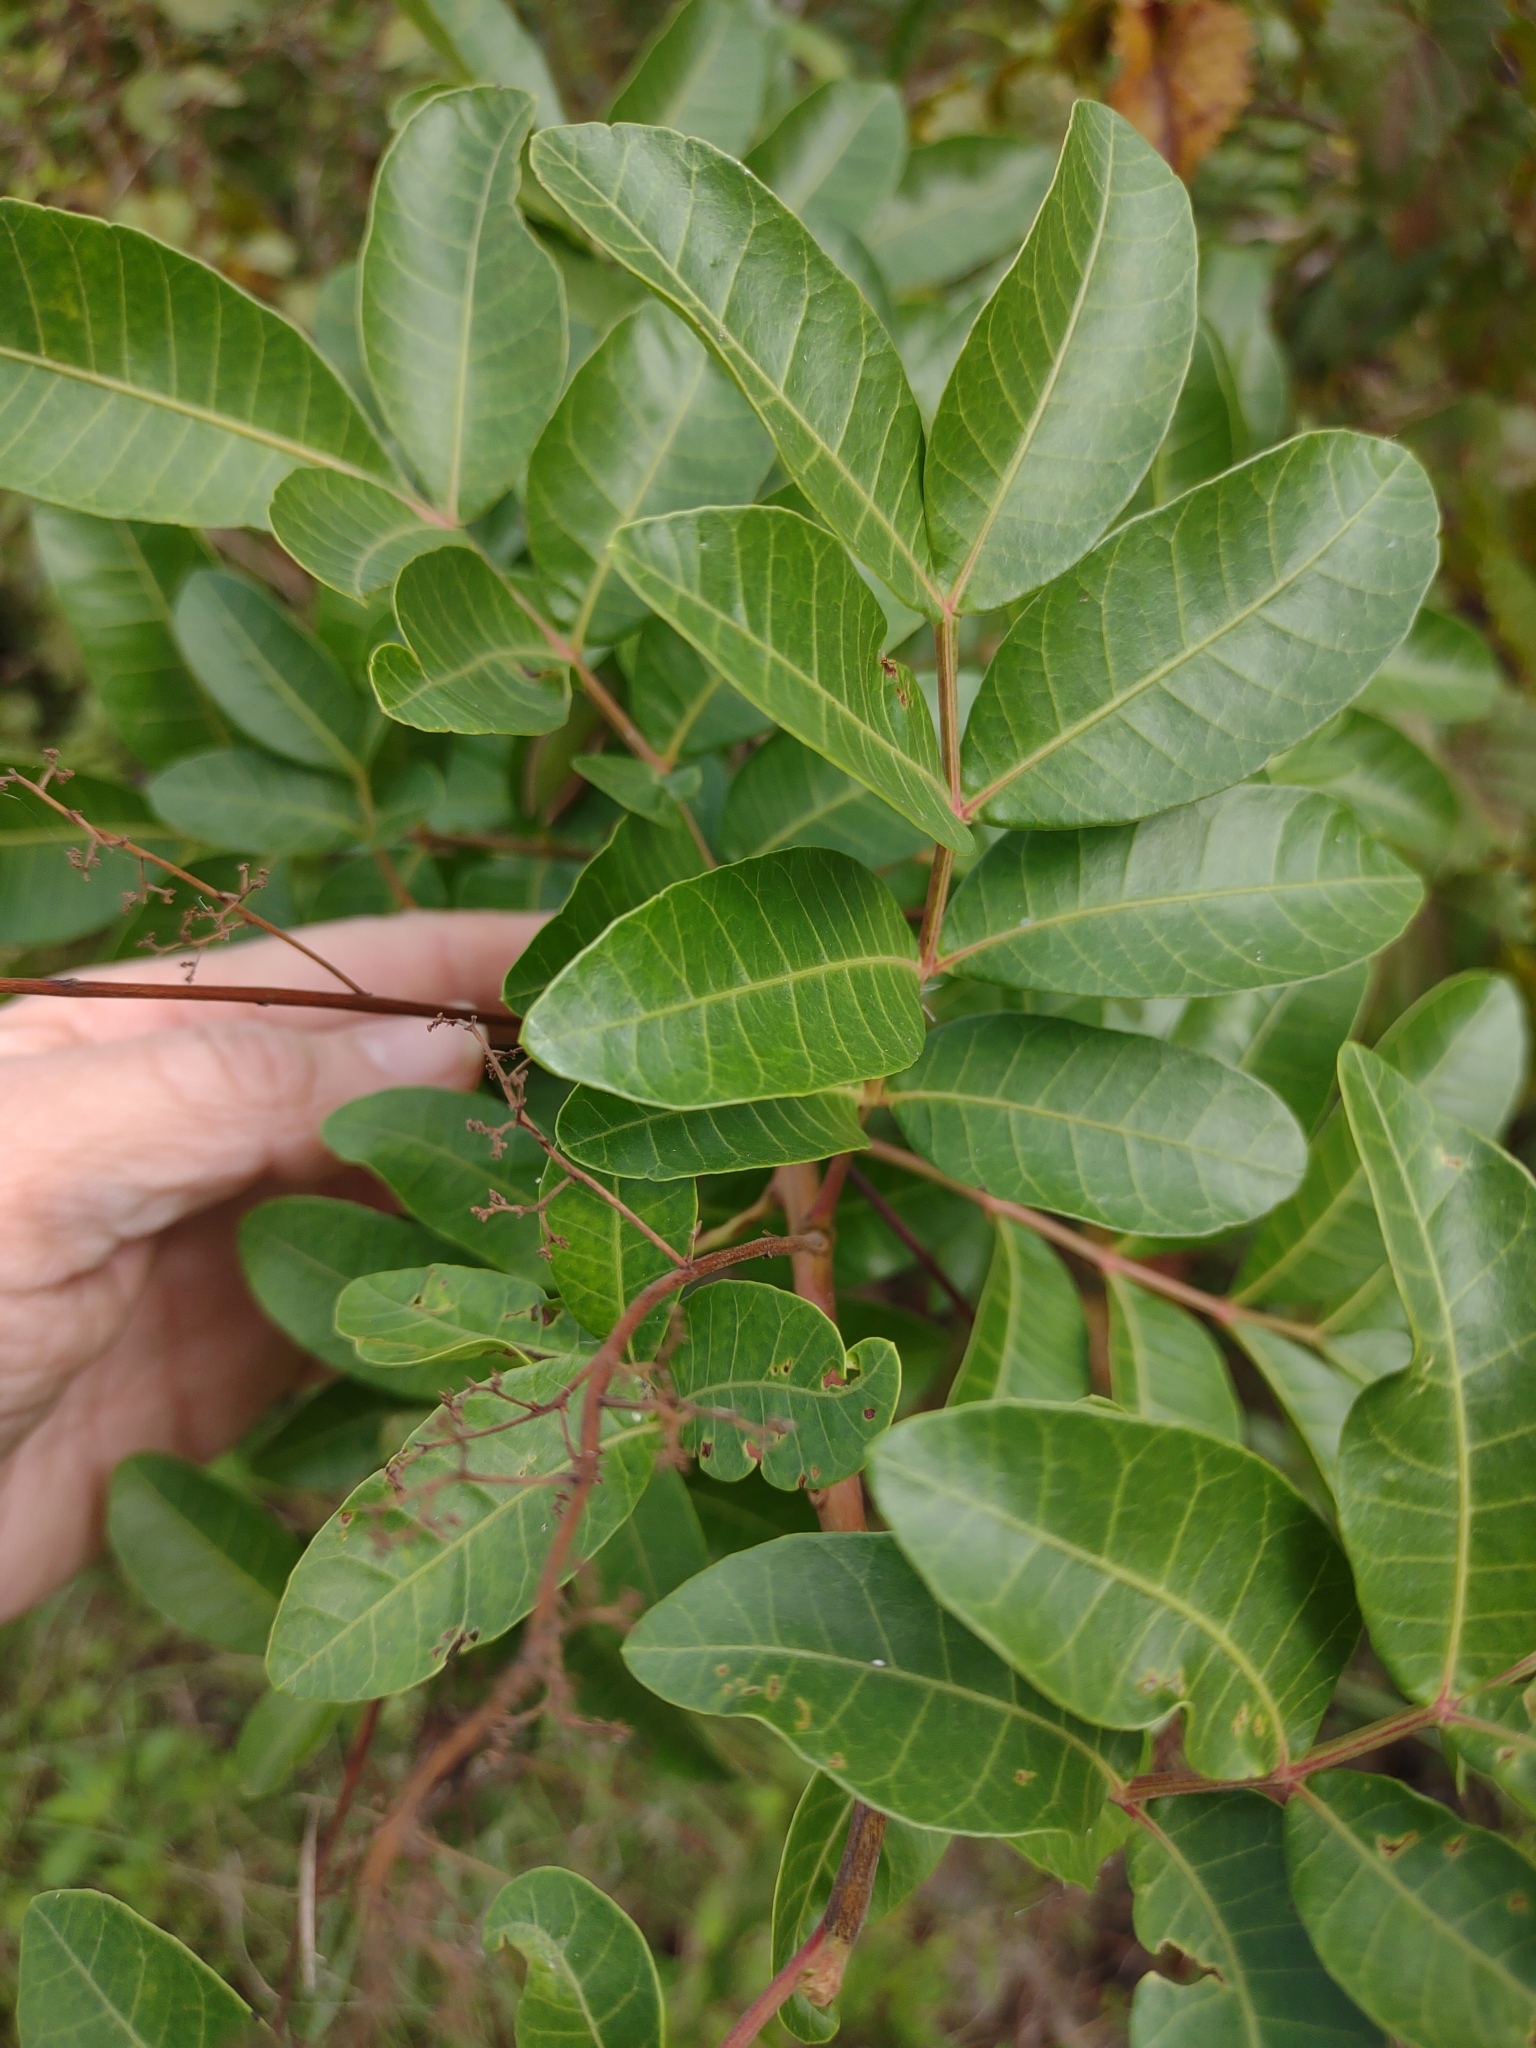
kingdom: Plantae
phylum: Tracheophyta
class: Magnoliopsida
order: Sapindales
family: Anacardiaceae
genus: Schinus
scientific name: Schinus terebinthifolia
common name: Brazilian peppertree
